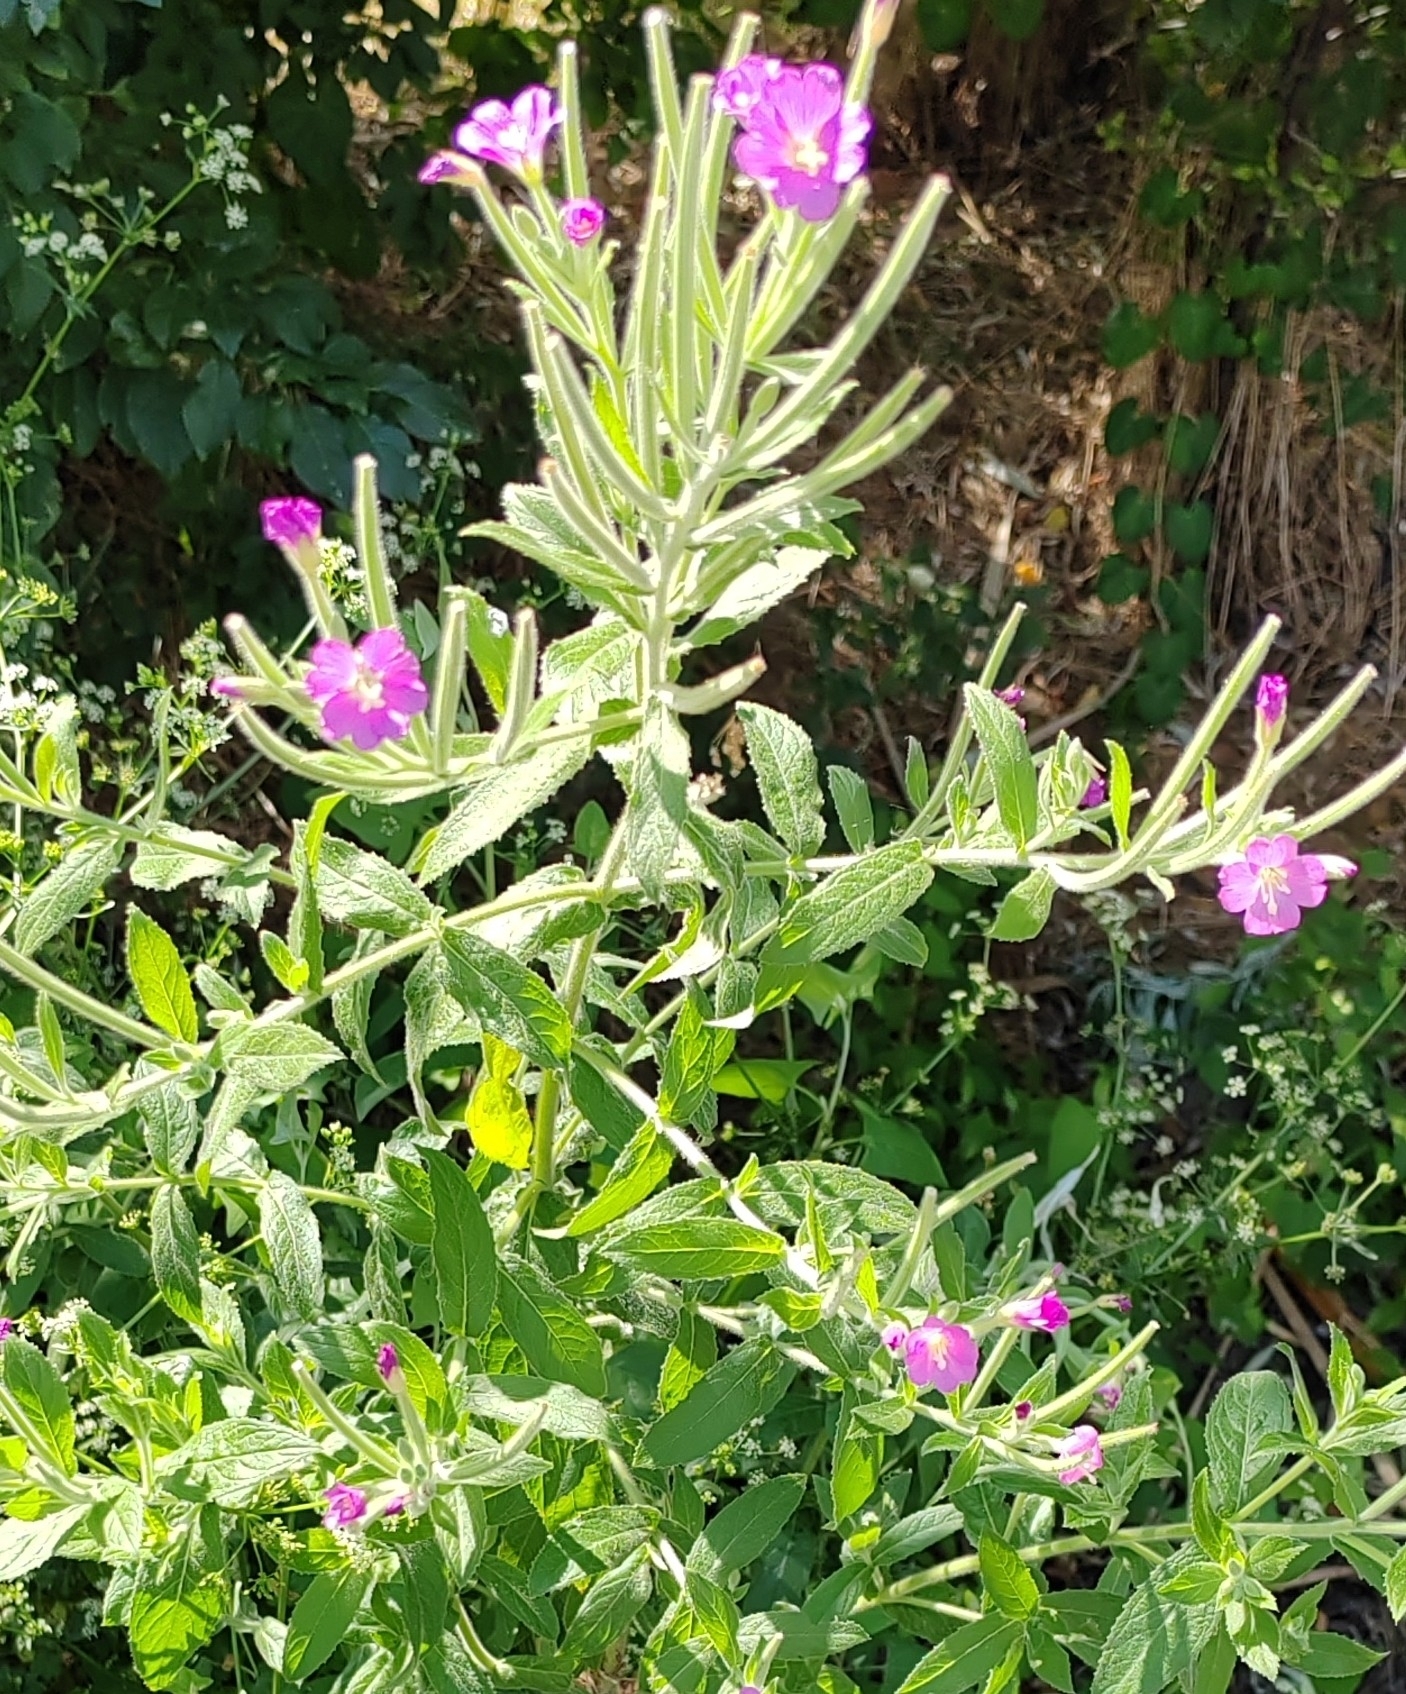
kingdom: Plantae
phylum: Tracheophyta
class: Magnoliopsida
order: Myrtales
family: Onagraceae
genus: Epilobium
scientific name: Epilobium hirsutum
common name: Great willowherb
